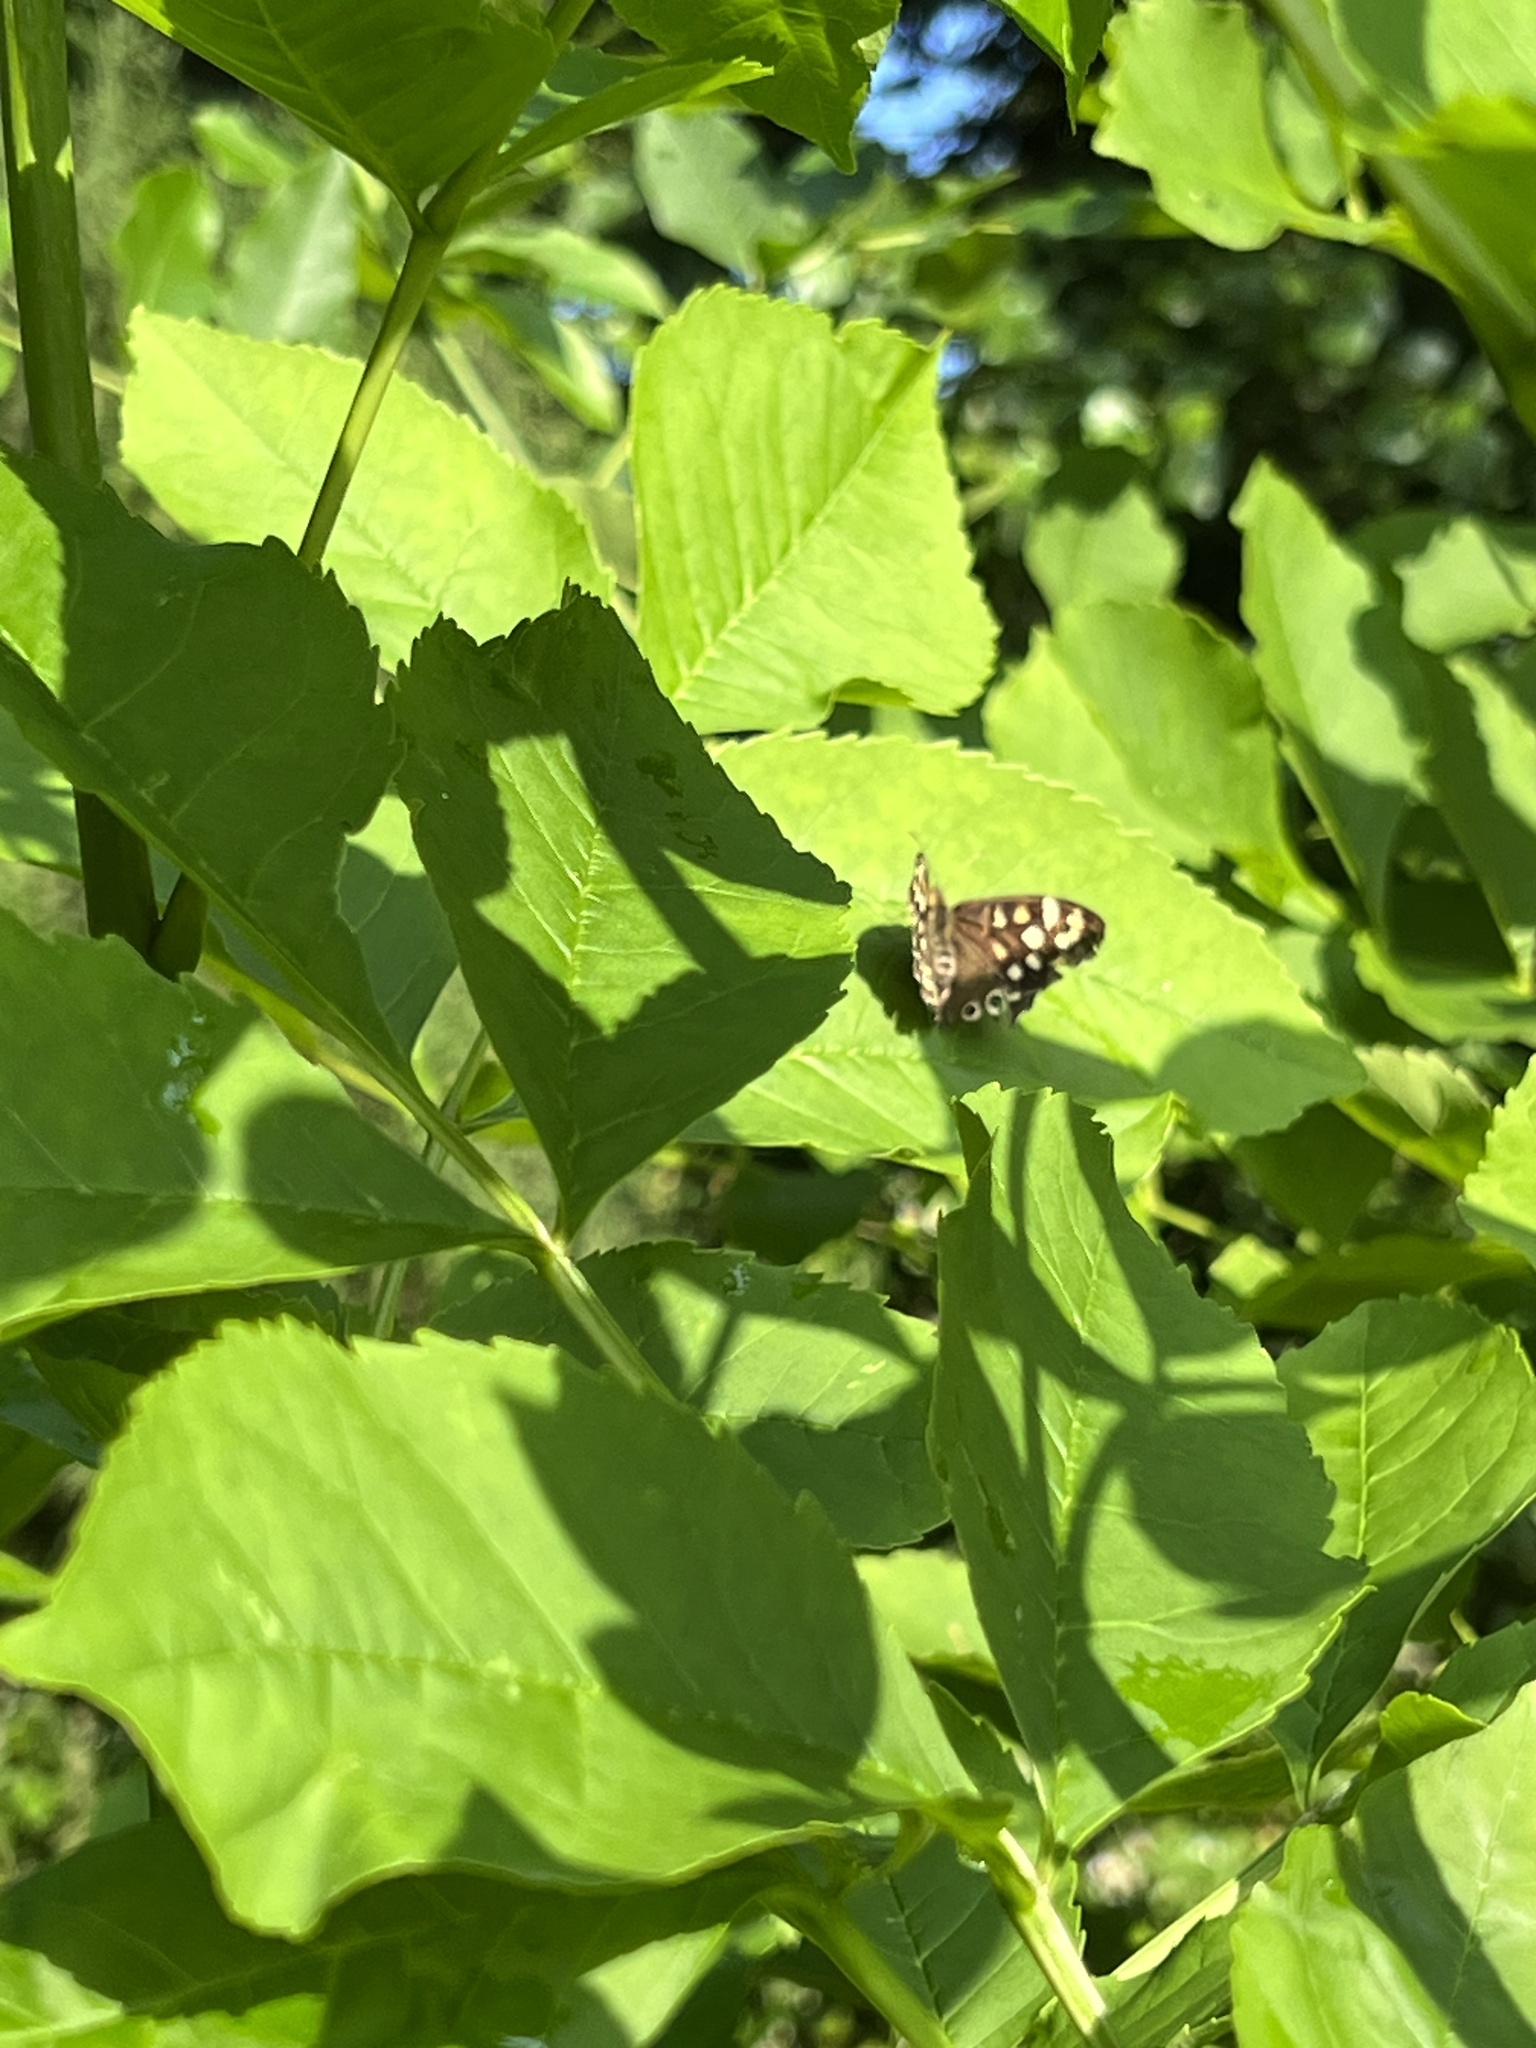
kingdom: Animalia
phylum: Arthropoda
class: Insecta
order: Lepidoptera
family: Nymphalidae
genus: Pararge
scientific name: Pararge aegeria
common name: Speckled wood
